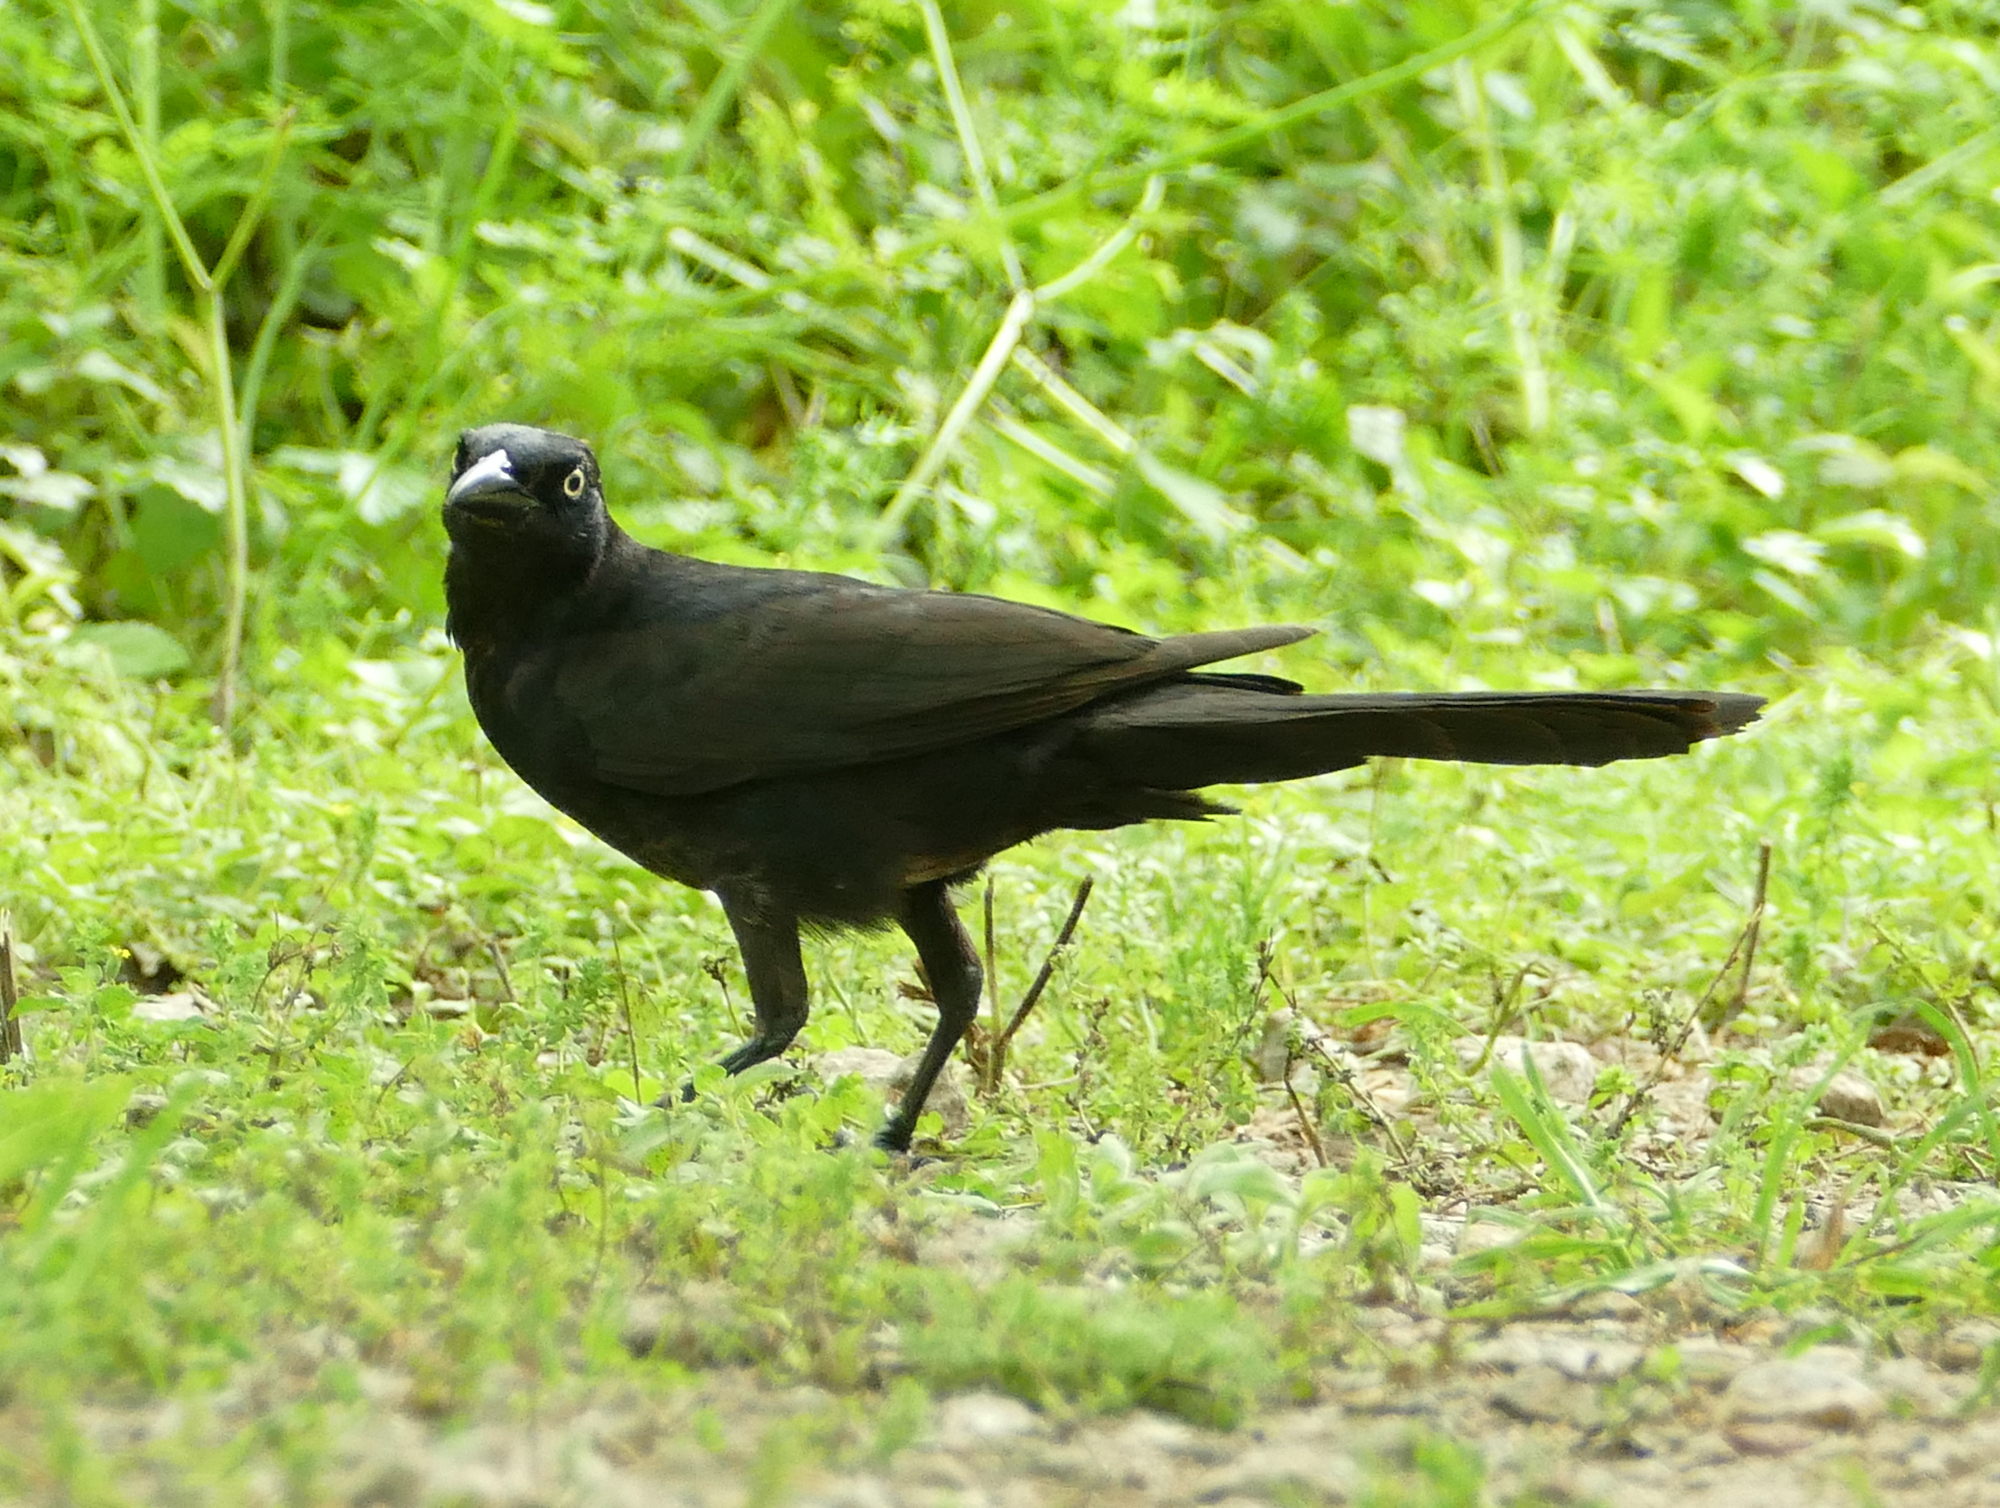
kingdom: Animalia
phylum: Chordata
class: Aves
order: Passeriformes
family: Icteridae
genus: Quiscalus
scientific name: Quiscalus mexicanus
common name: Great-tailed grackle
